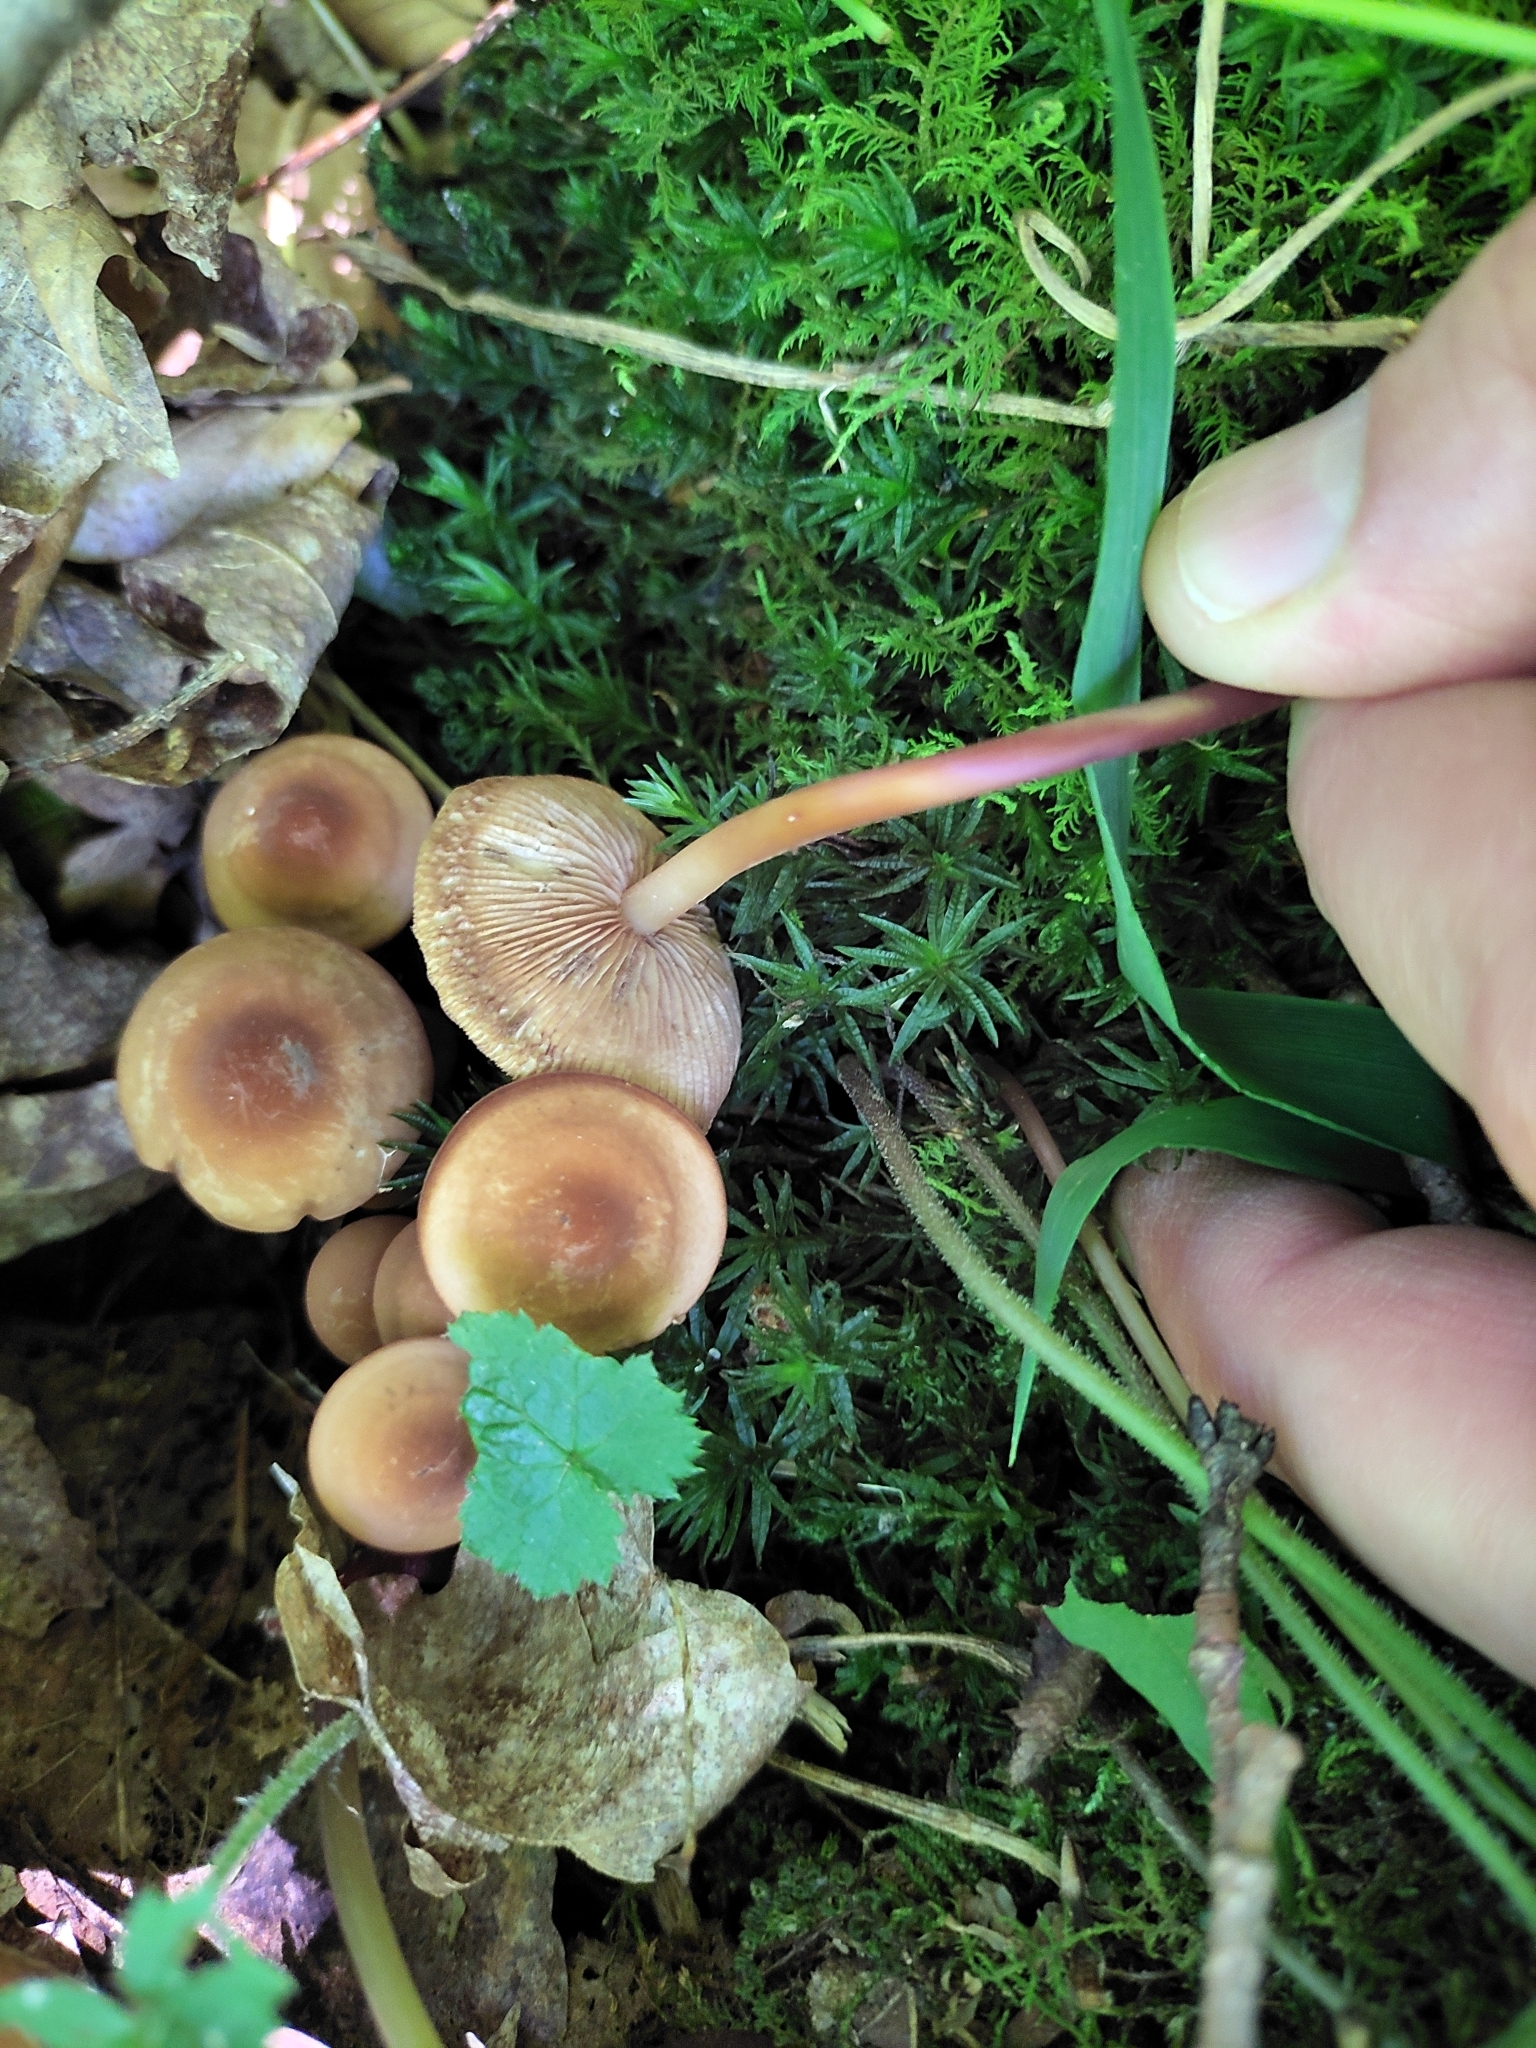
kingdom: Fungi
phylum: Basidiomycota
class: Agaricomycetes
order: Agaricales
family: Omphalotaceae
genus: Gymnopus
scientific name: Gymnopus lachnophyllus
